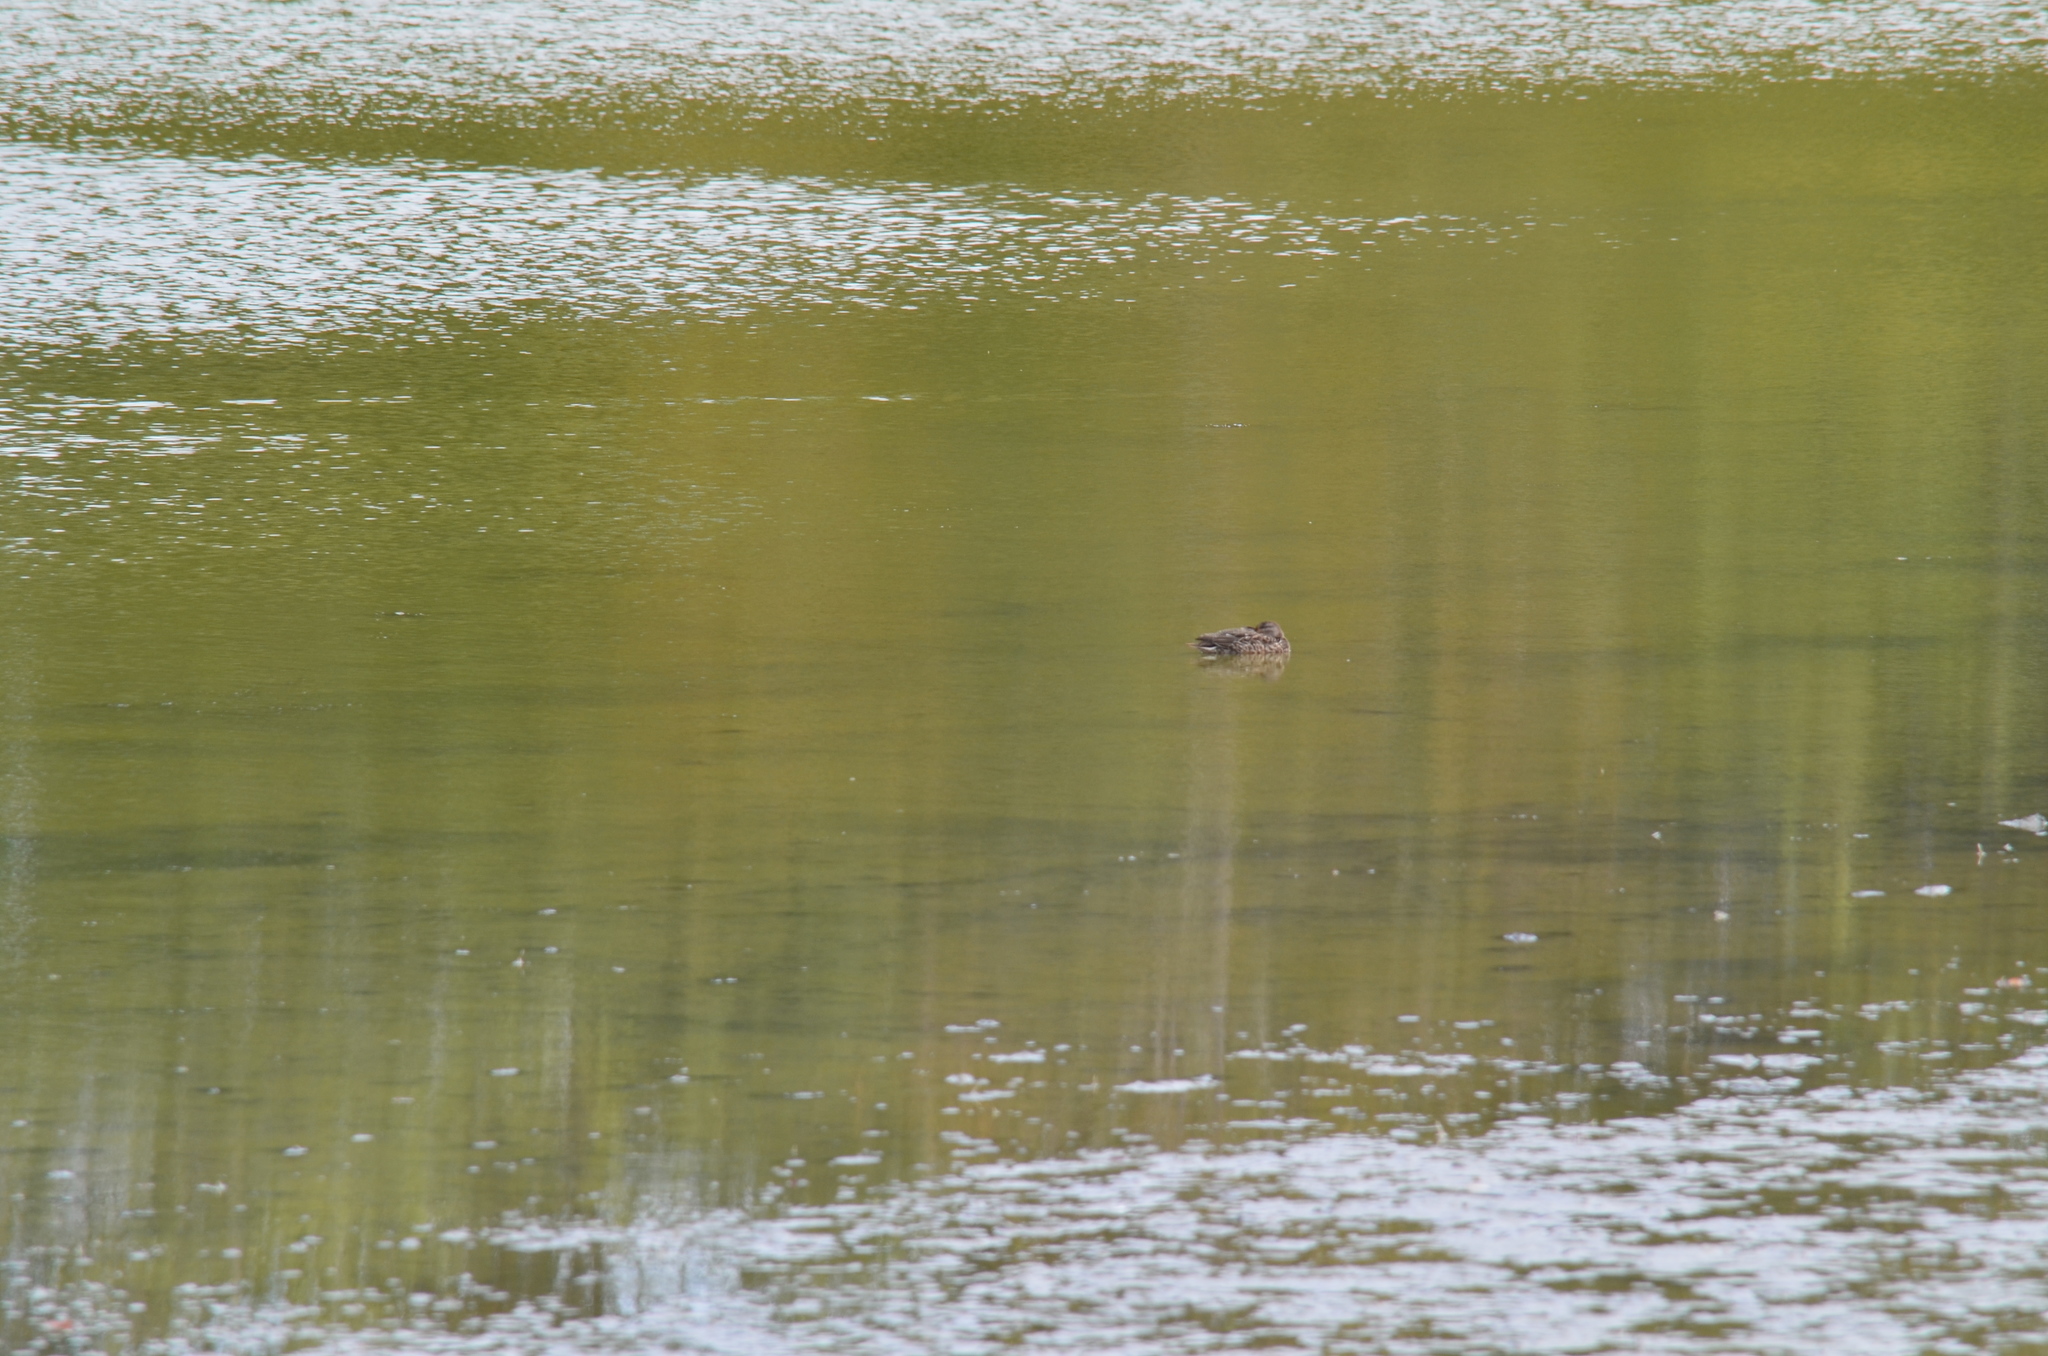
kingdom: Animalia
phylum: Chordata
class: Aves
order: Anseriformes
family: Anatidae
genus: Anas
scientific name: Anas platyrhynchos
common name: Mallard
